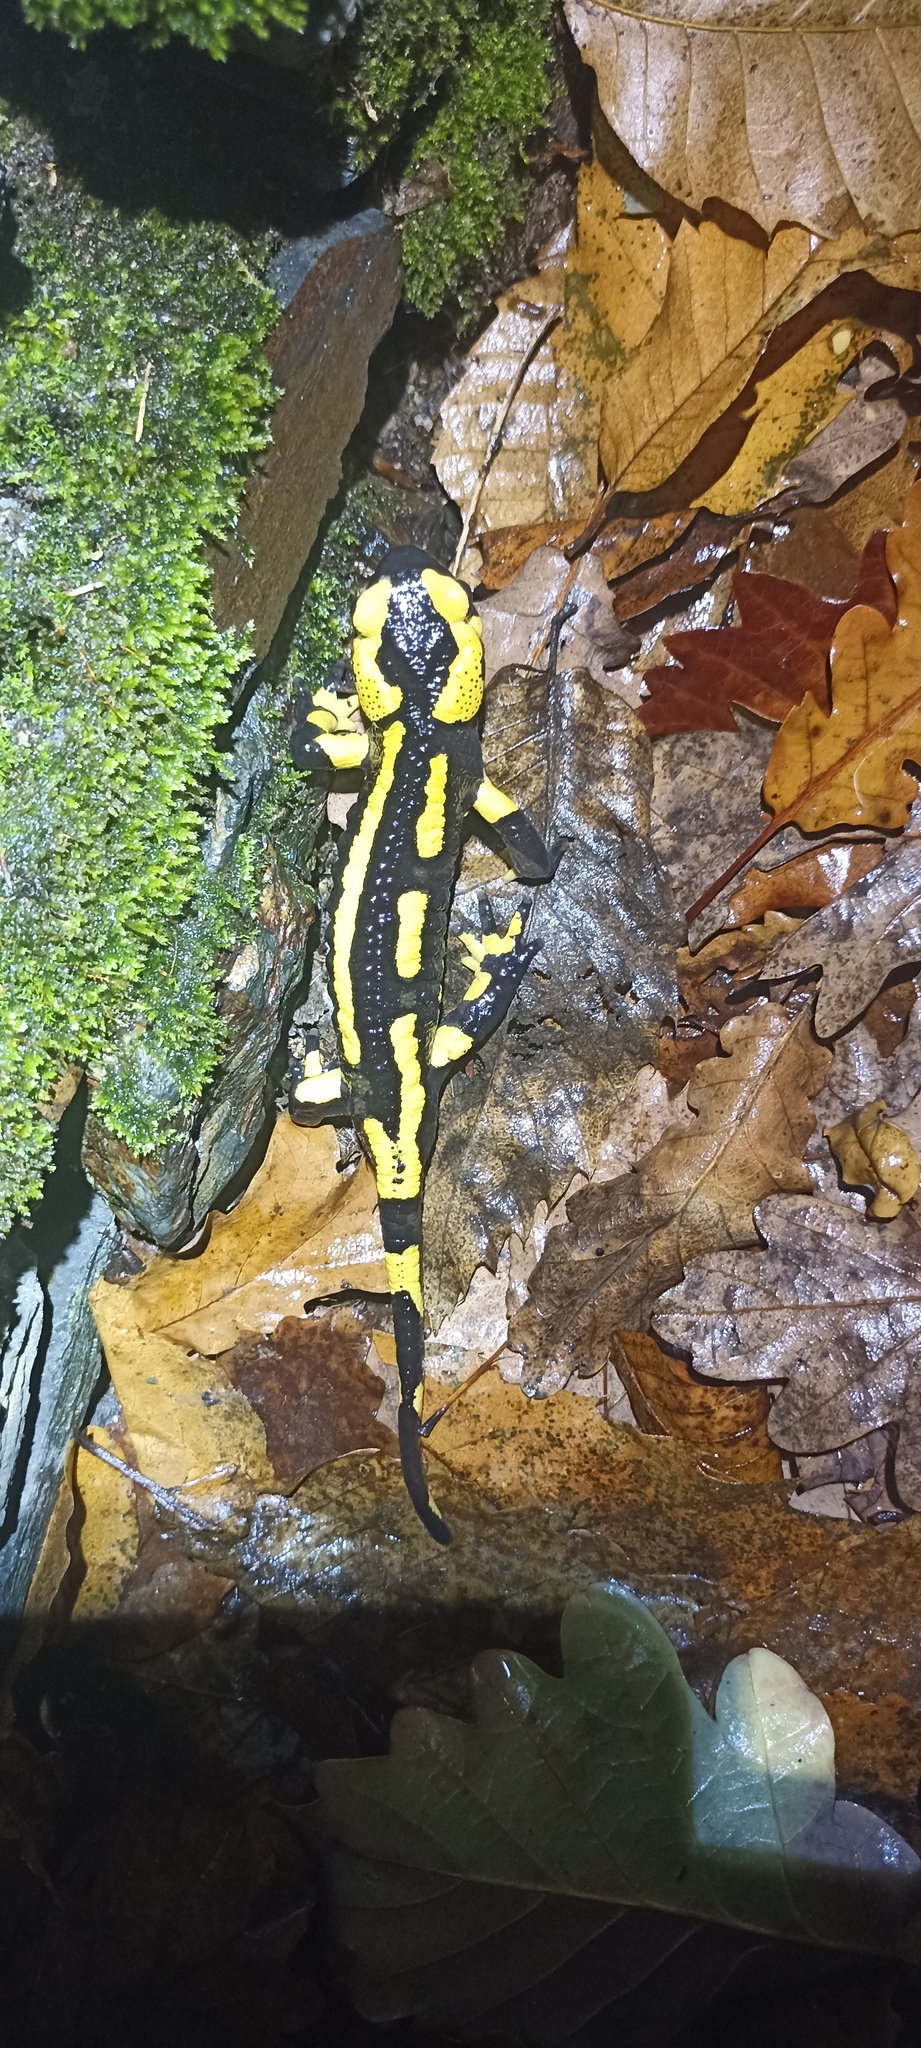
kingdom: Animalia
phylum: Chordata
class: Amphibia
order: Caudata
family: Salamandridae
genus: Salamandra
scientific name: Salamandra salamandra
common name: Fire salamander
